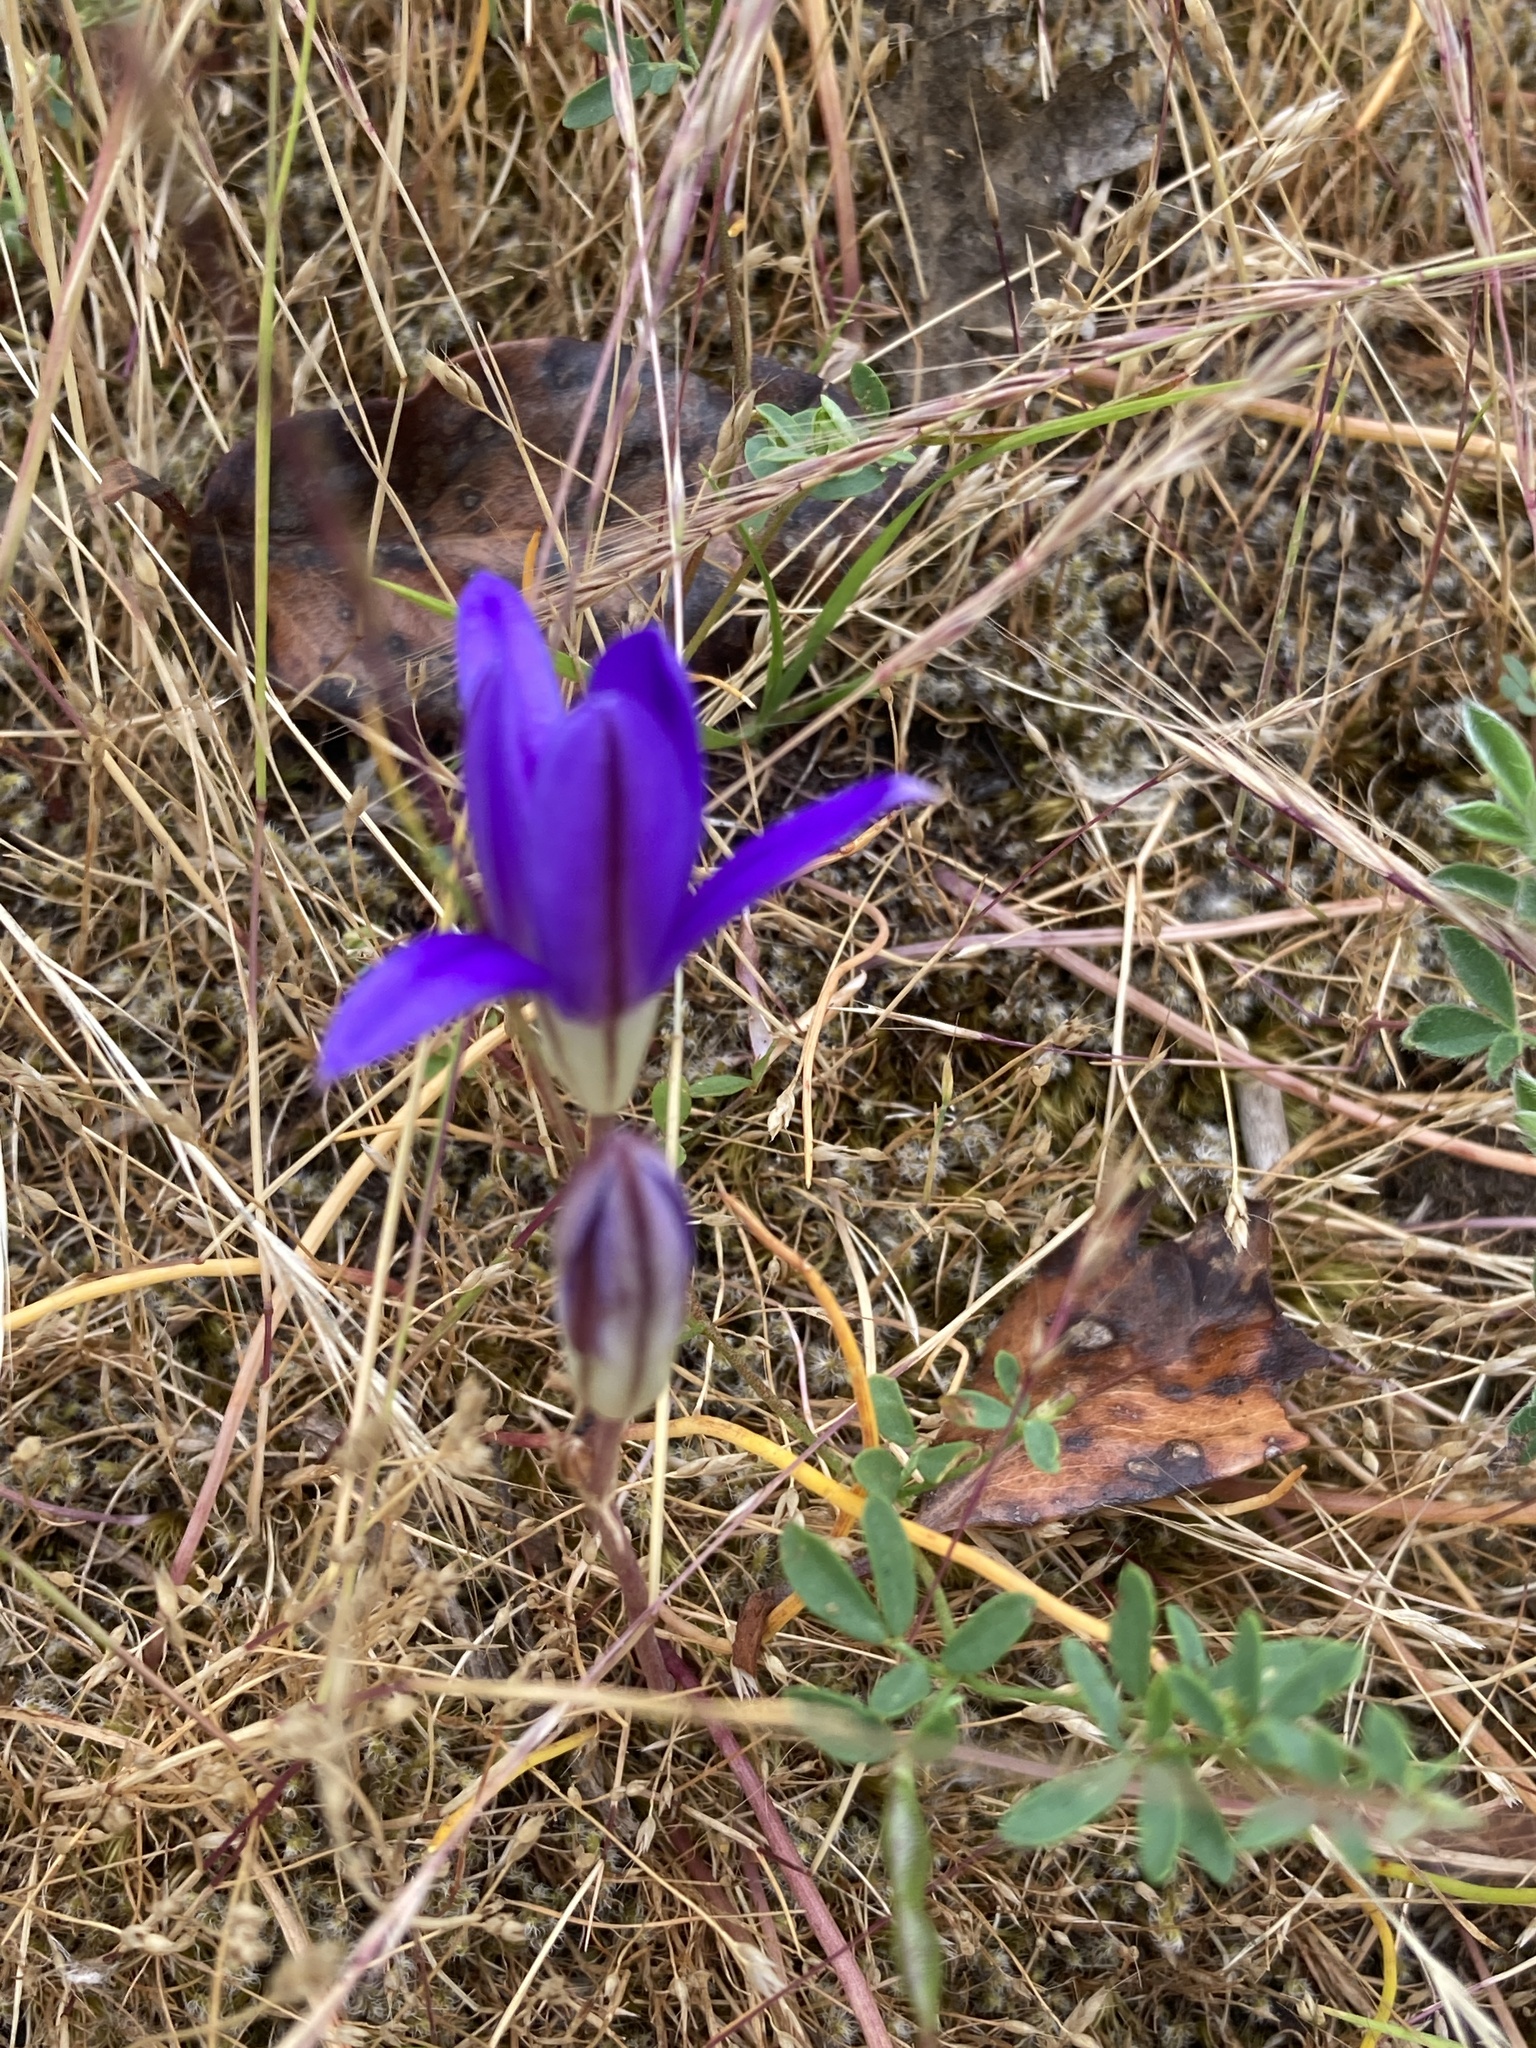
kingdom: Plantae
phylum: Tracheophyta
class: Liliopsida
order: Asparagales
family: Asparagaceae
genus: Brodiaea
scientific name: Brodiaea coronaria
